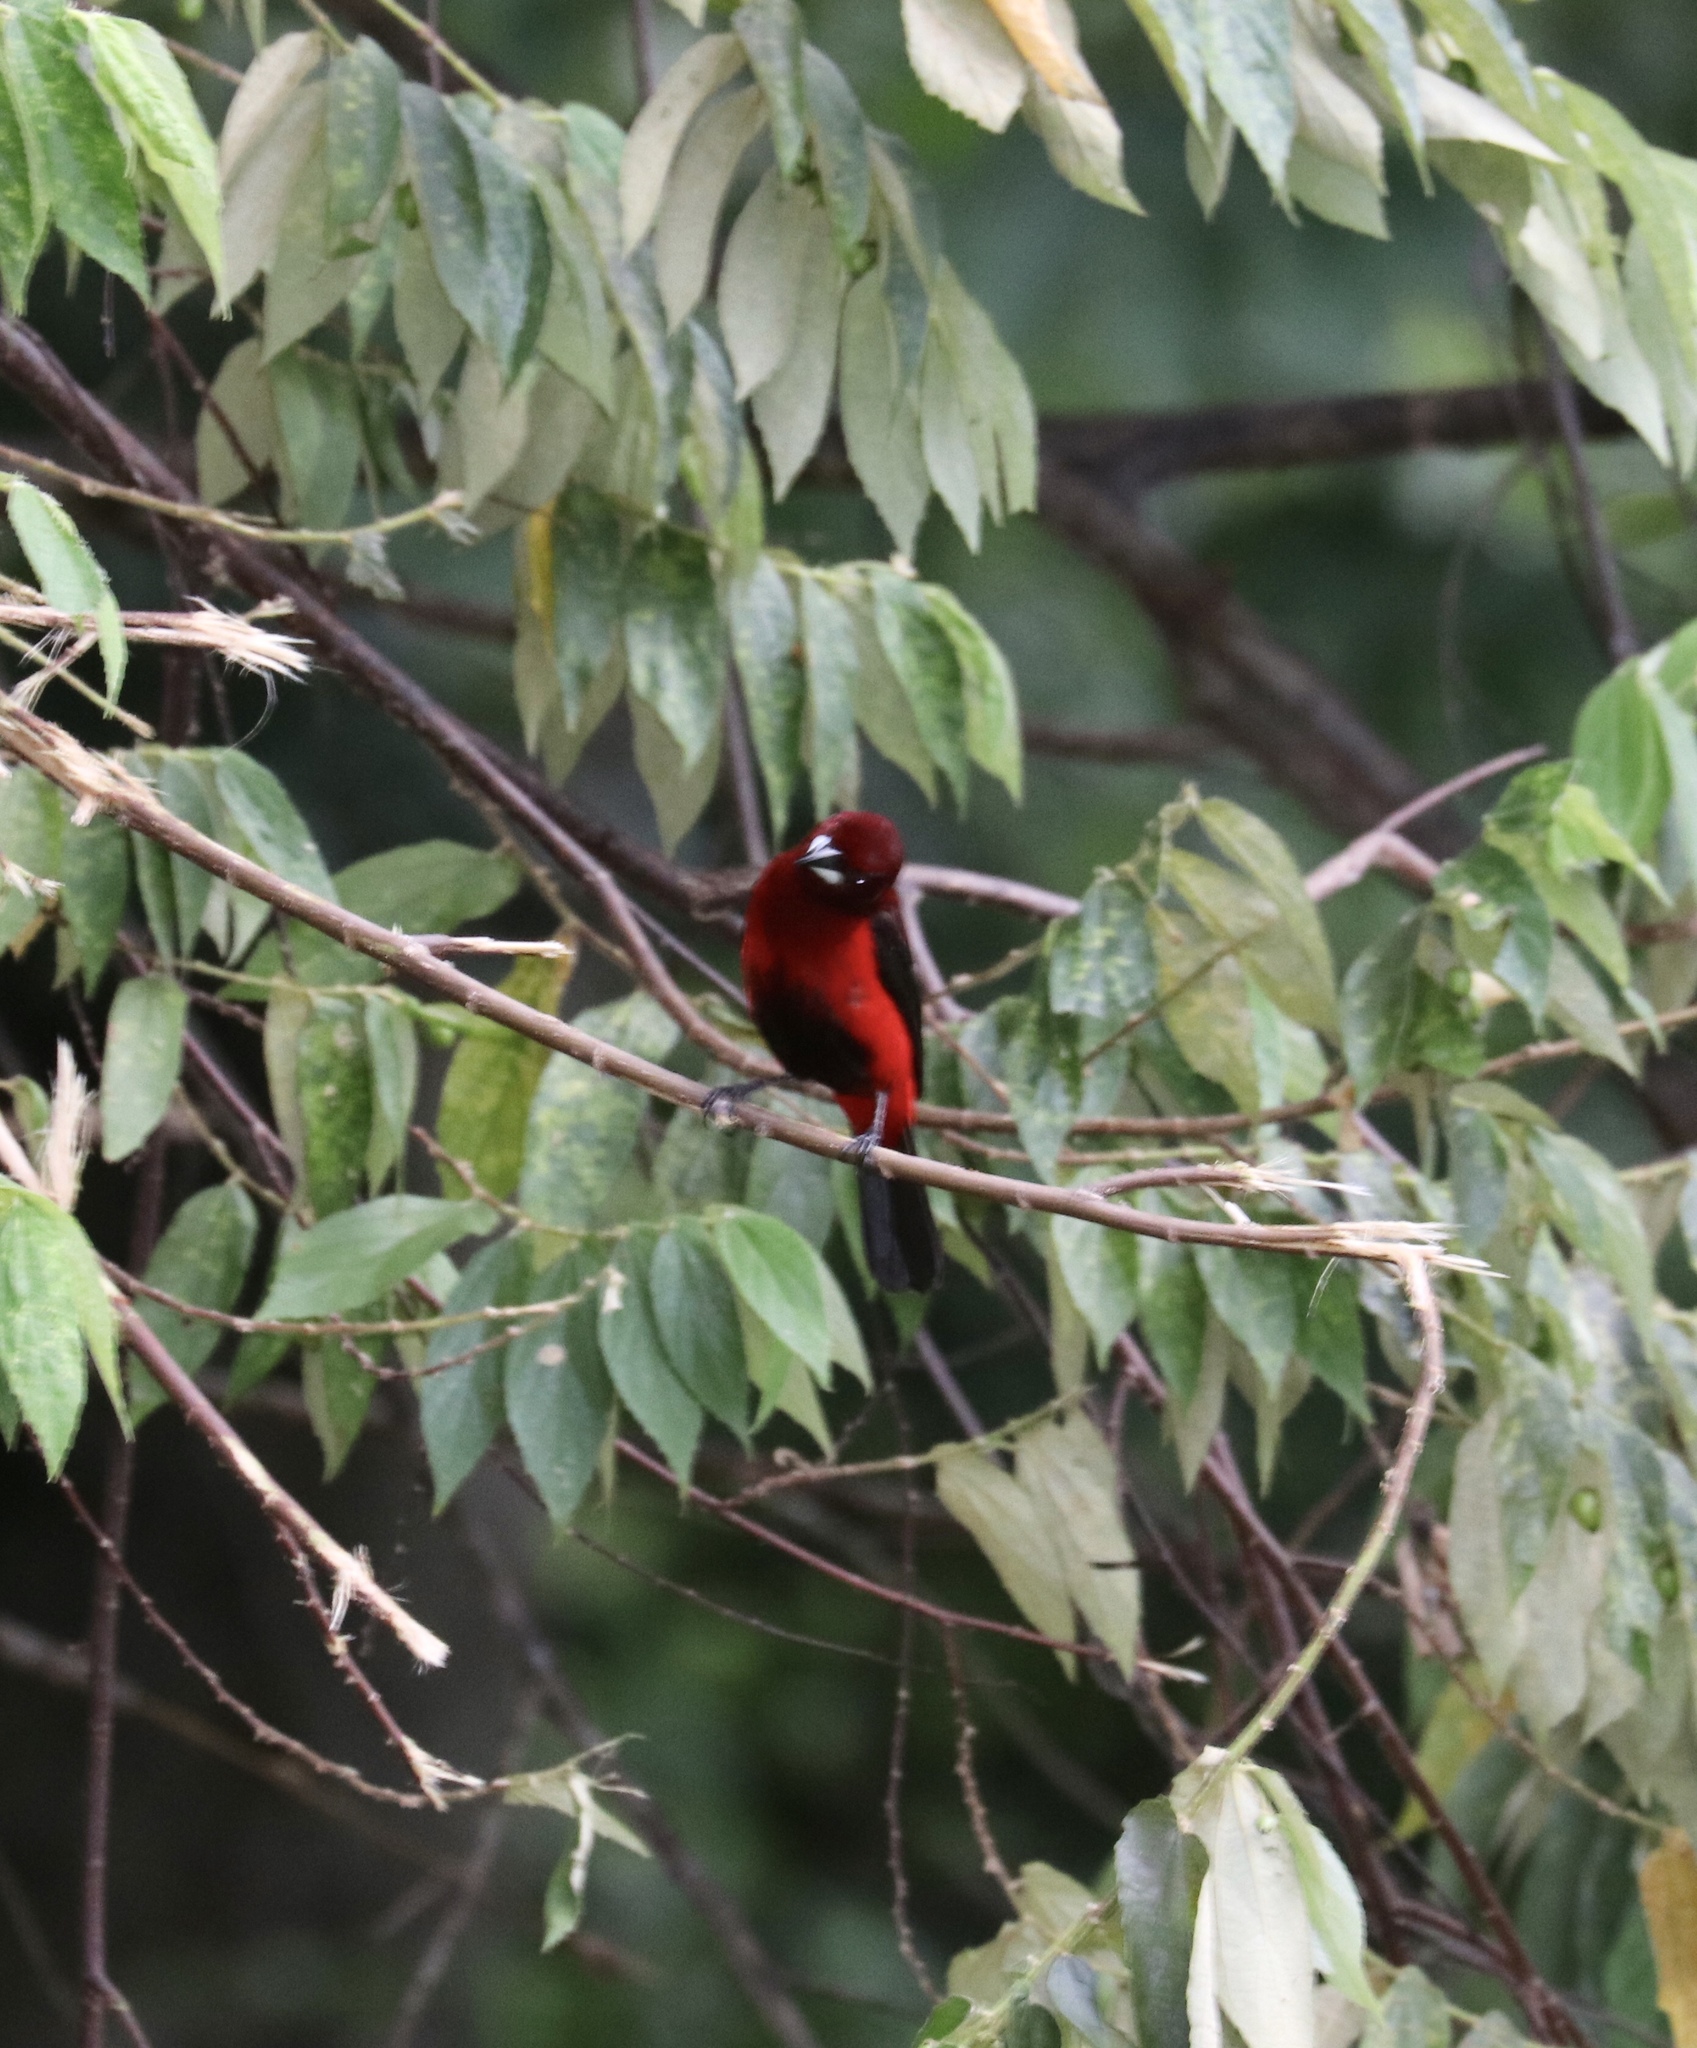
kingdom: Animalia
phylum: Chordata
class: Aves
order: Passeriformes
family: Thraupidae
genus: Ramphocelus
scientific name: Ramphocelus dimidiatus
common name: Crimson-backed tanager
